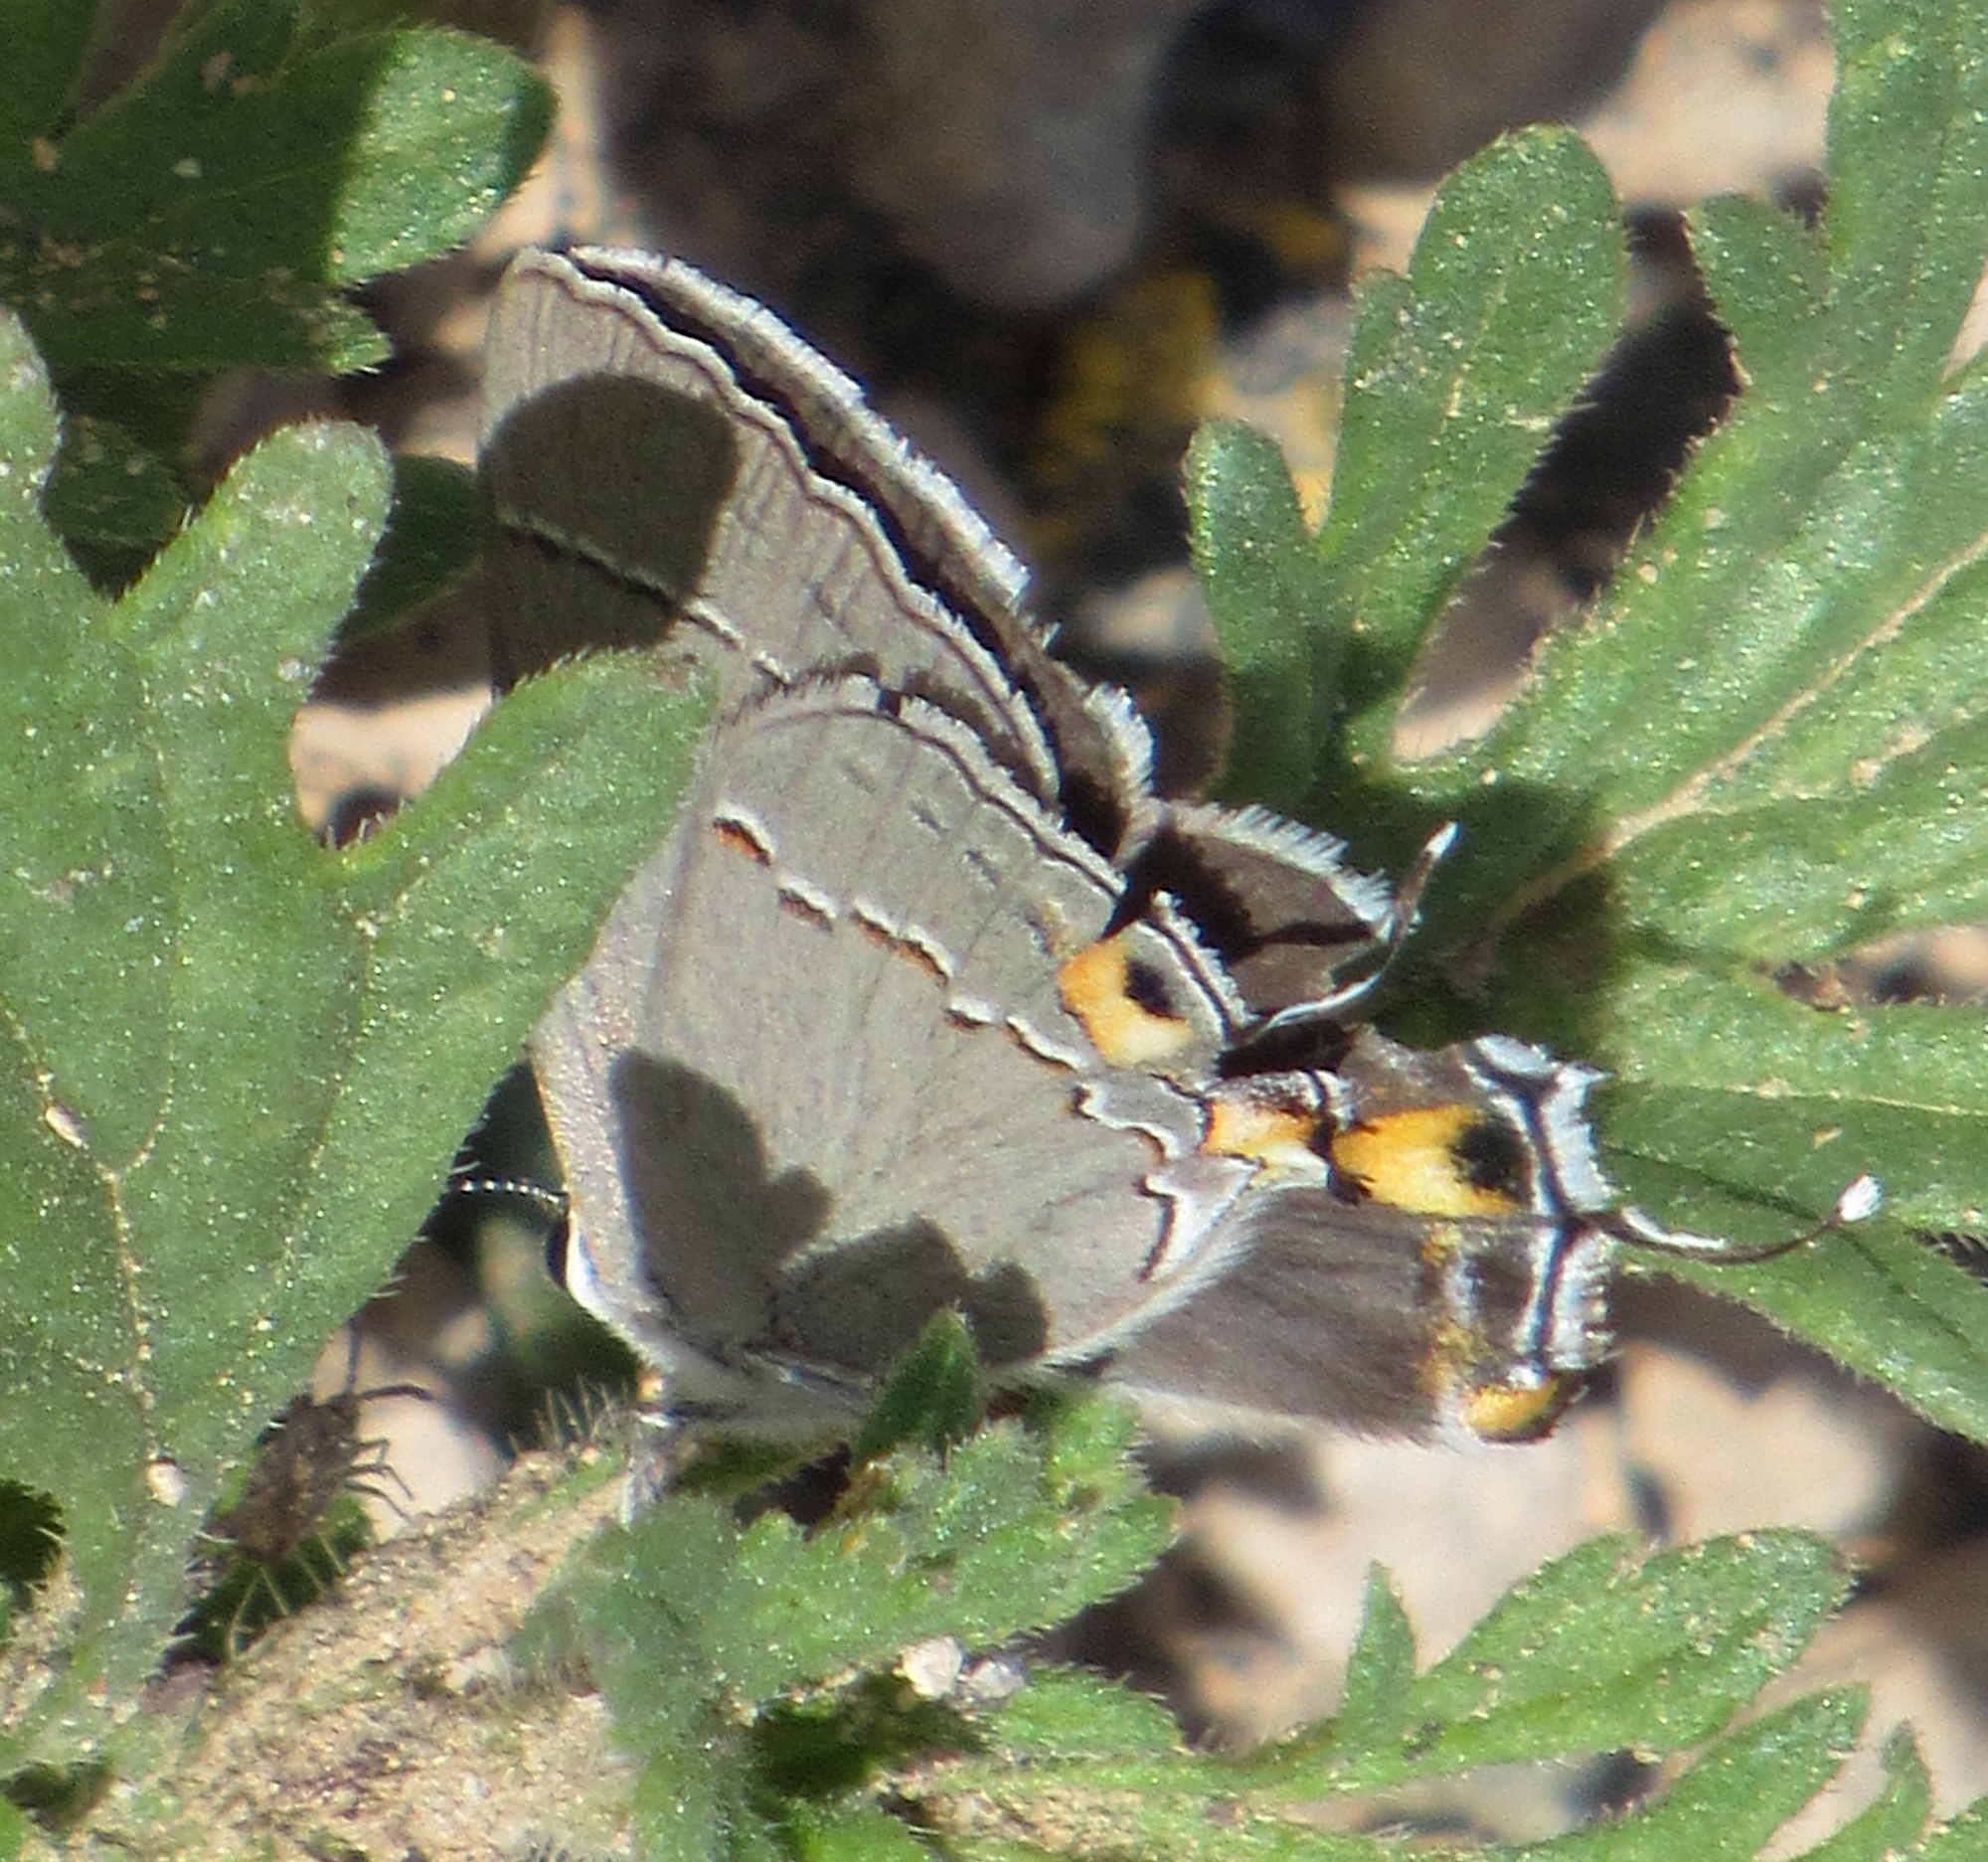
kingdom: Animalia
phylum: Arthropoda
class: Insecta
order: Lepidoptera
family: Lycaenidae
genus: Strymon
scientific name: Strymon melinus
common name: Gray hairstreak
